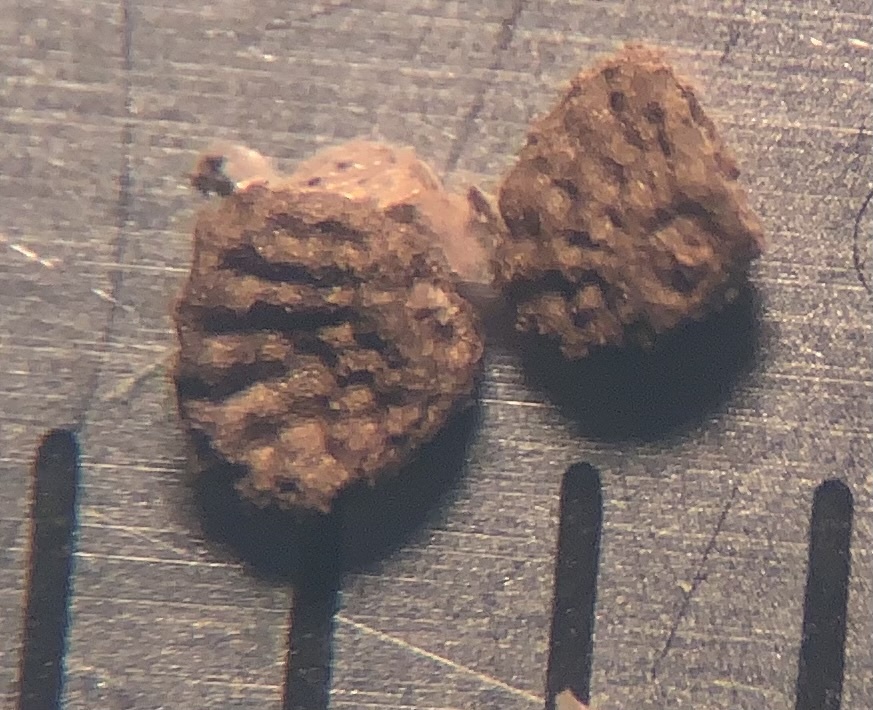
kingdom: Plantae
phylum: Tracheophyta
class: Liliopsida
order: Commelinales
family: Commelinaceae
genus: Murdannia
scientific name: Murdannia nudiflora
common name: Nakedstem dewflower
